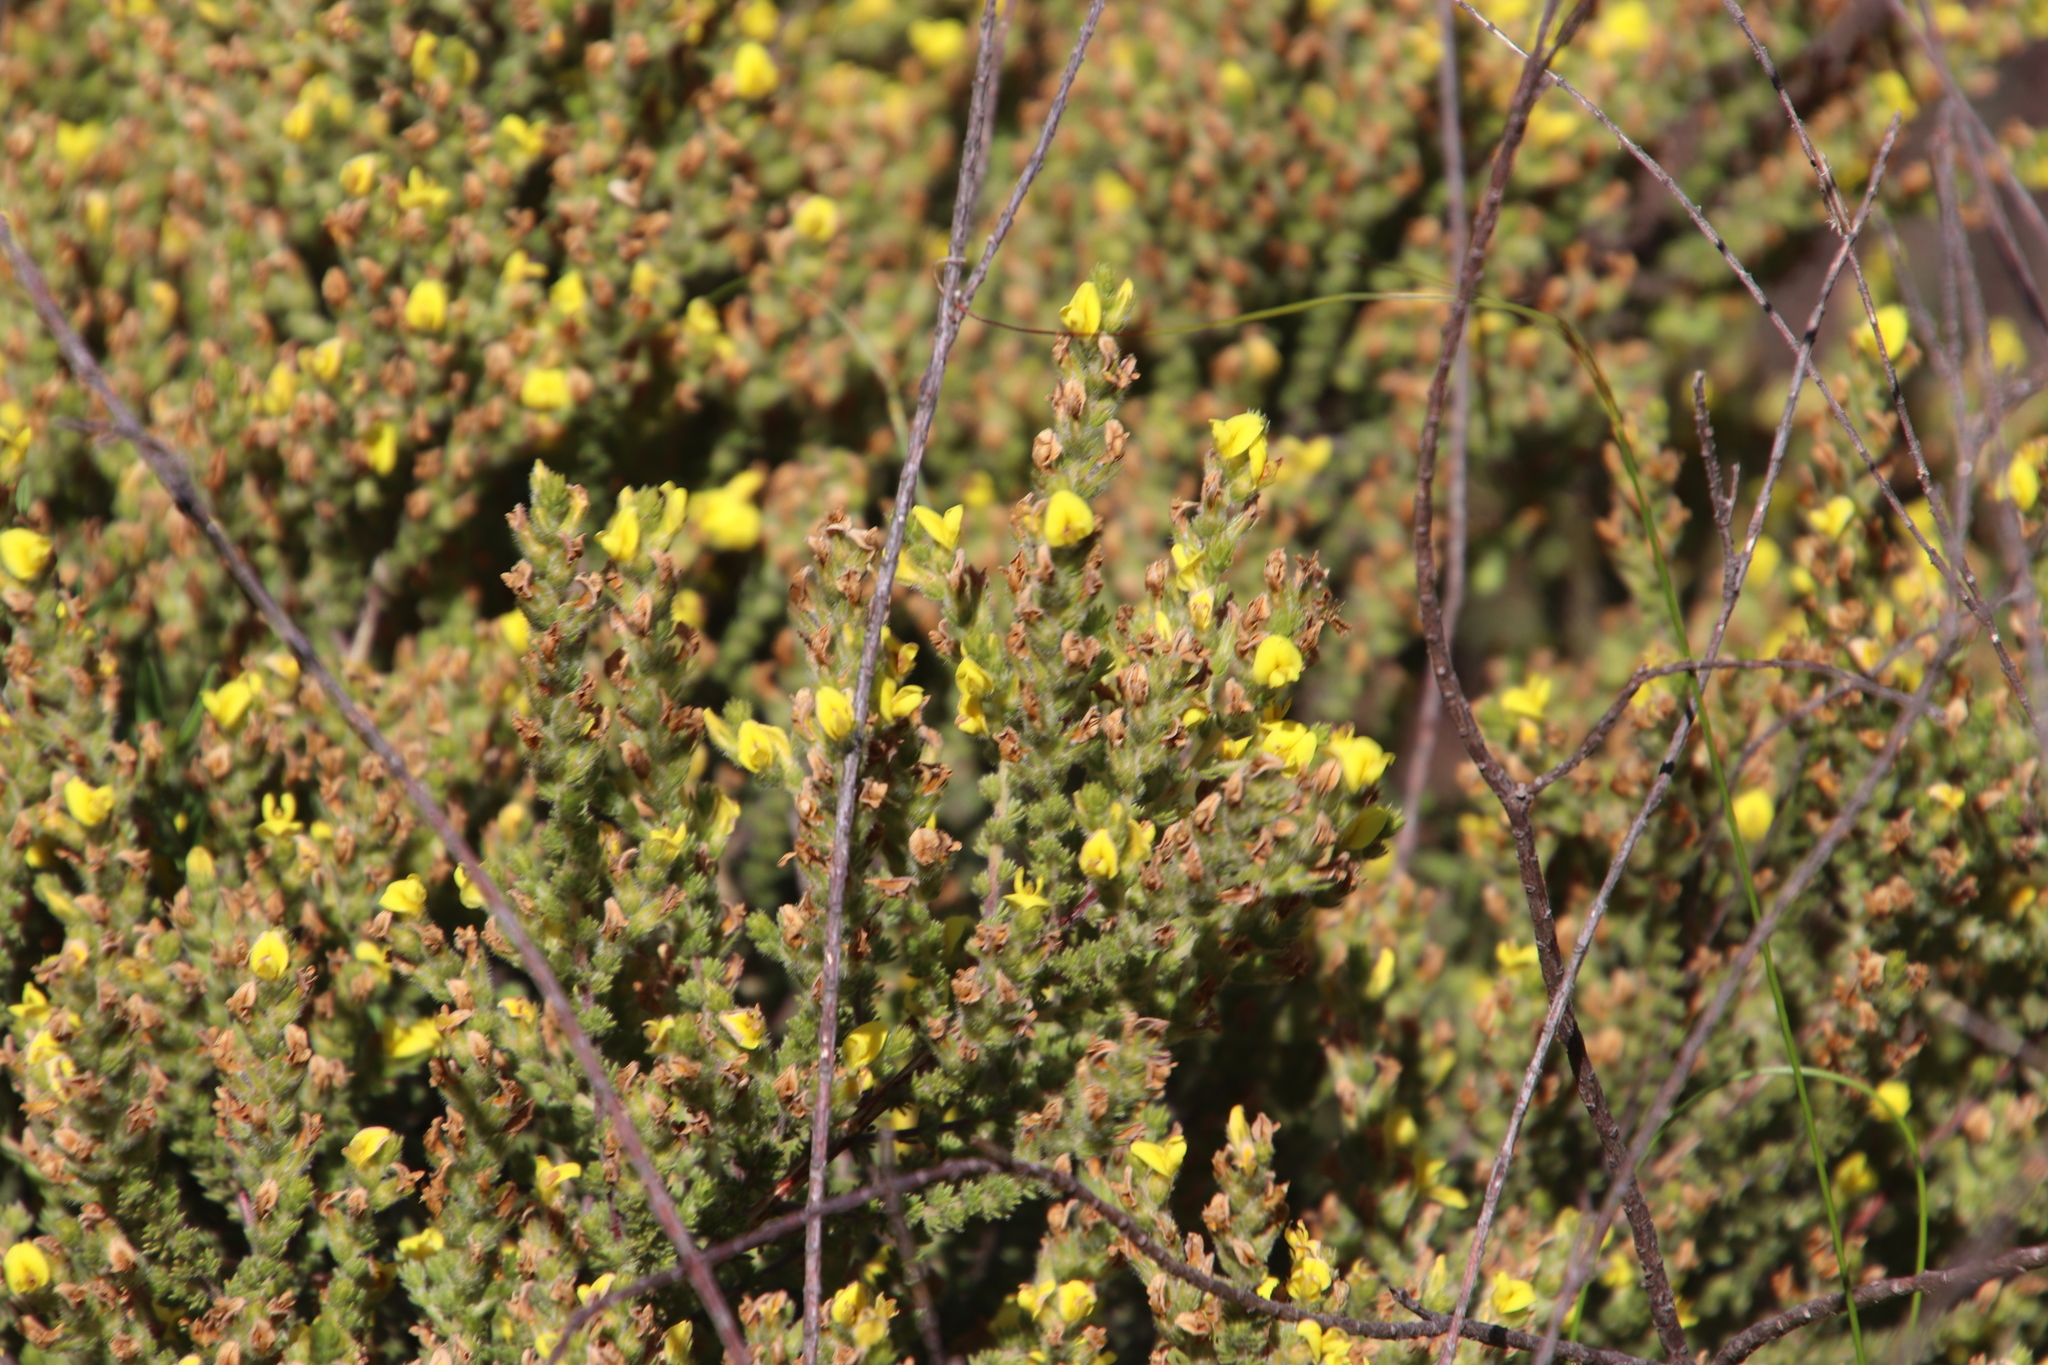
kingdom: Plantae
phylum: Tracheophyta
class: Magnoliopsida
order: Fabales
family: Fabaceae
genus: Aspalathus
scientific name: Aspalathus ericifolia
